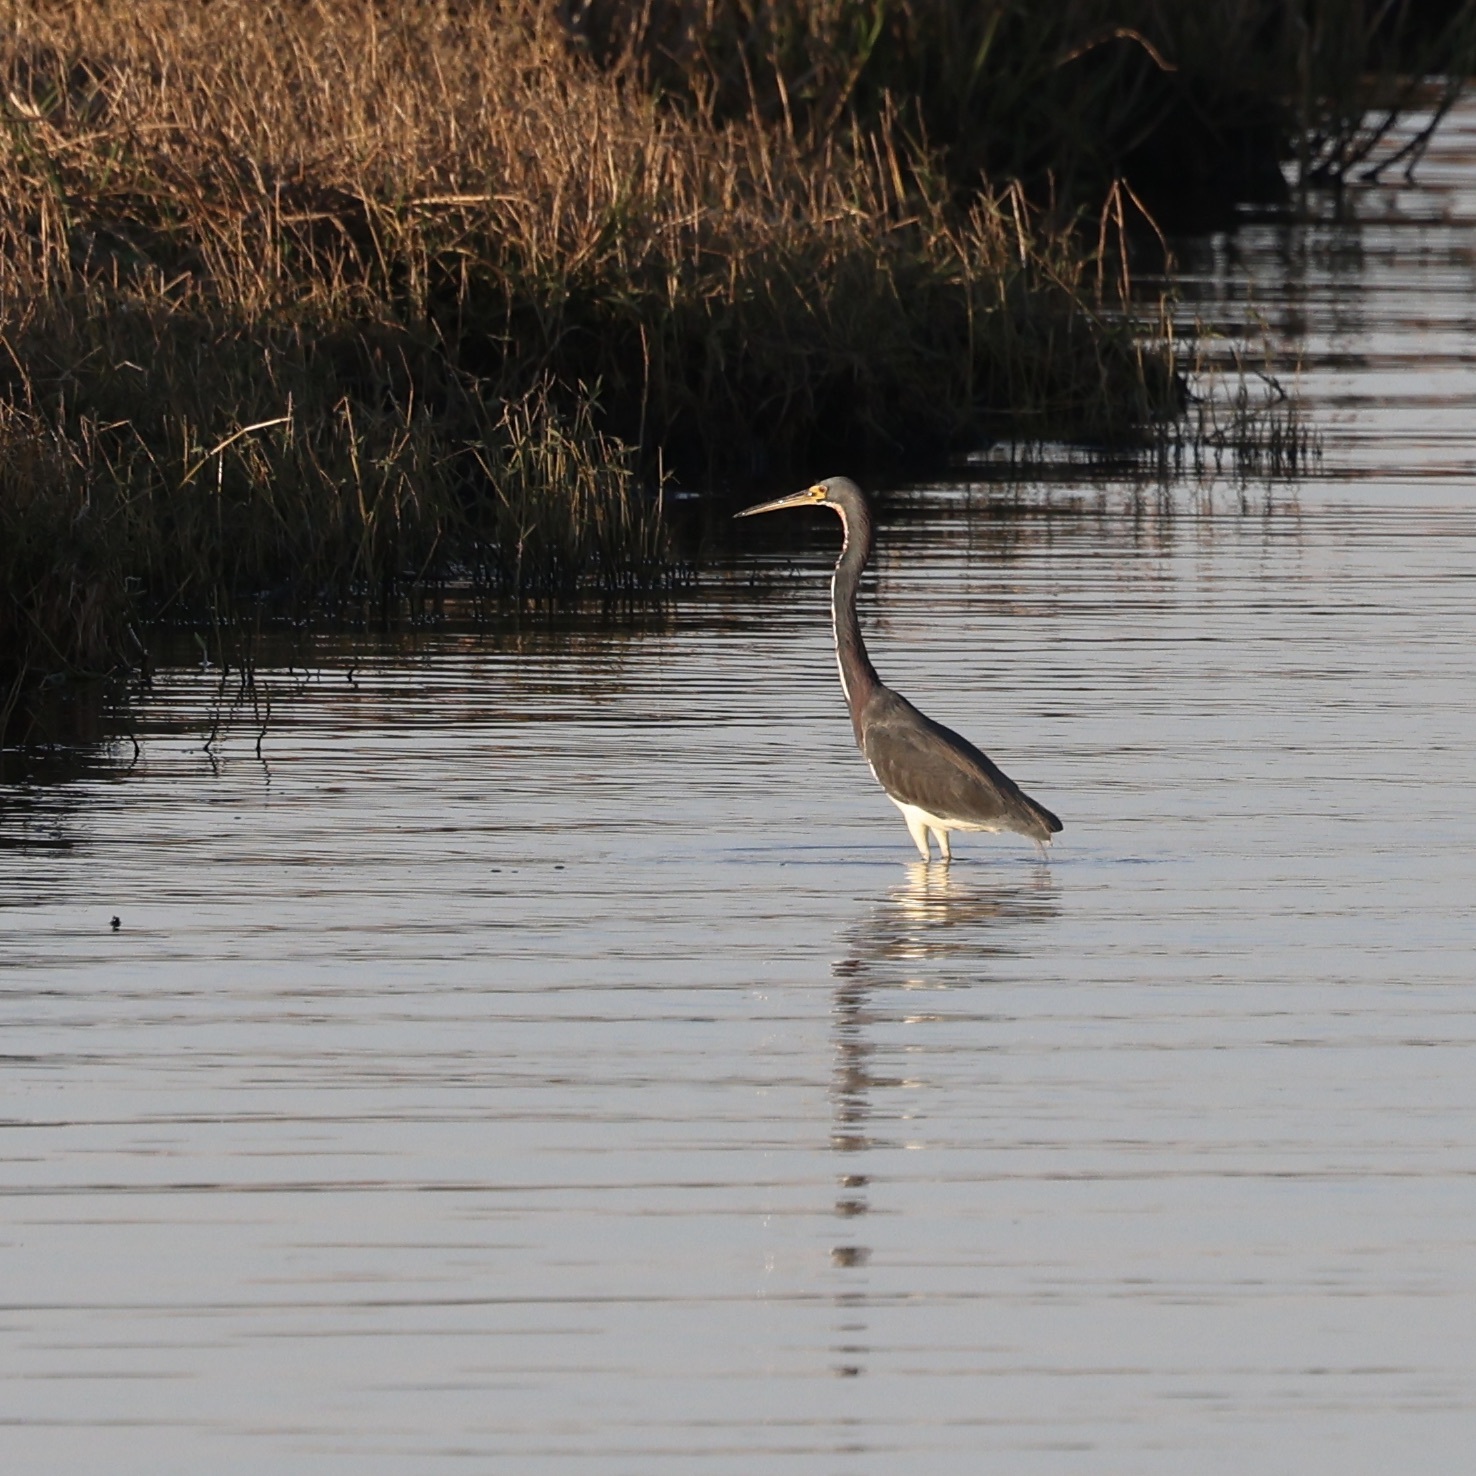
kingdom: Animalia
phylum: Chordata
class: Aves
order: Pelecaniformes
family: Ardeidae
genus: Egretta
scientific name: Egretta tricolor
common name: Tricolored heron
